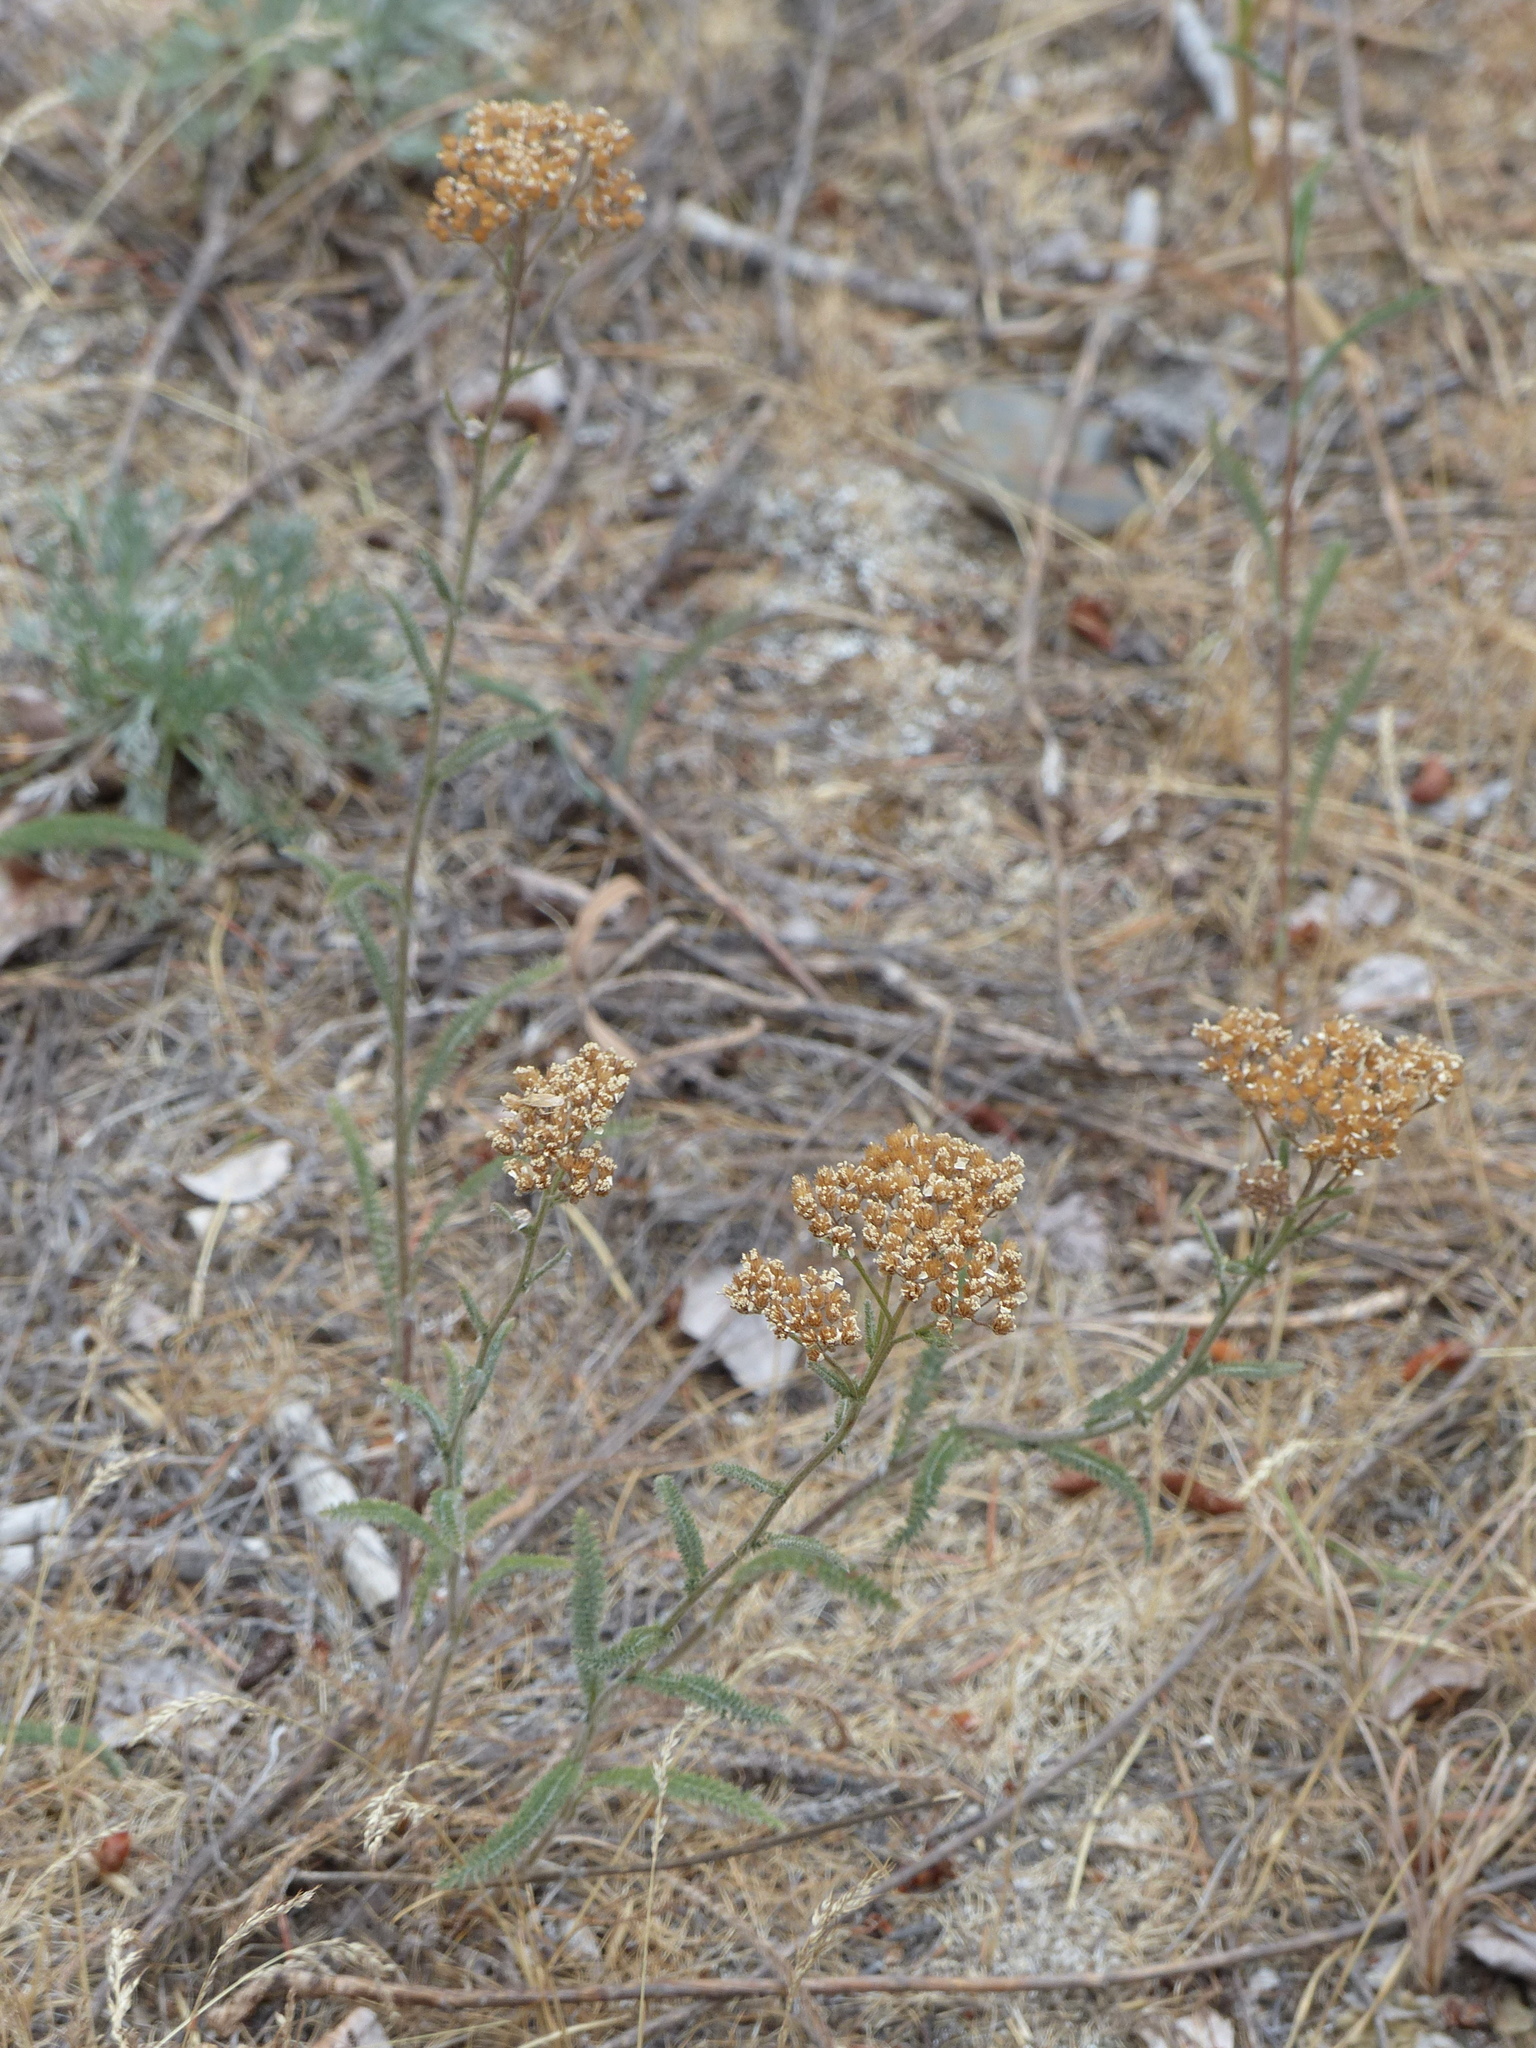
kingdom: Plantae
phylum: Tracheophyta
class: Magnoliopsida
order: Asterales
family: Asteraceae
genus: Achillea
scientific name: Achillea millefolium
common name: Yarrow
